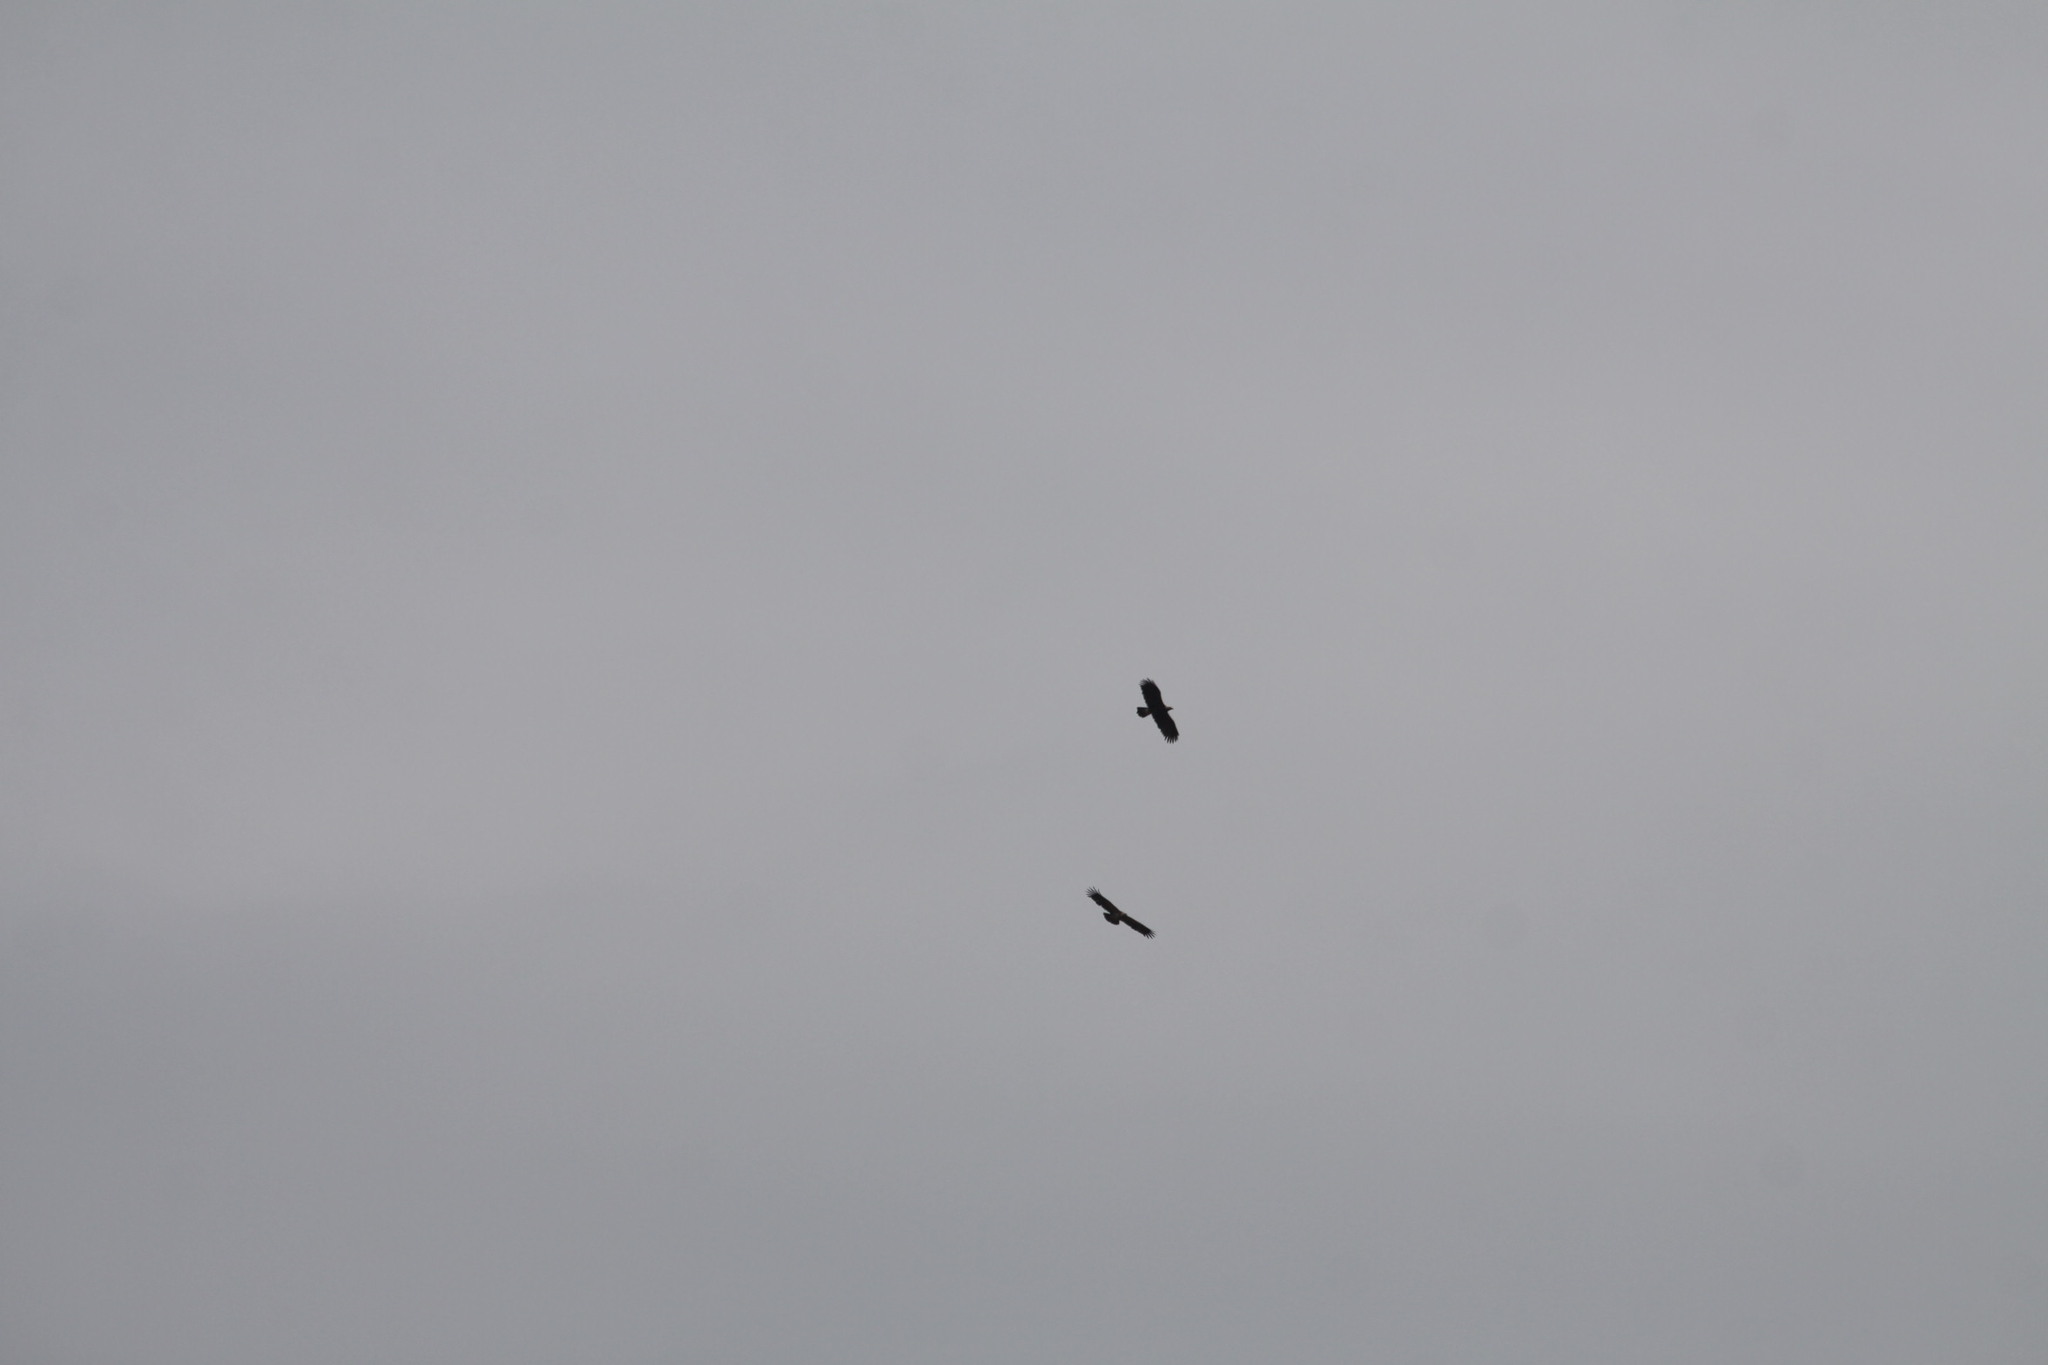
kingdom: Animalia
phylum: Chordata
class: Aves
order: Accipitriformes
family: Accipitridae
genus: Aquila
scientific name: Aquila heliaca
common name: Eastern imperial eagle
